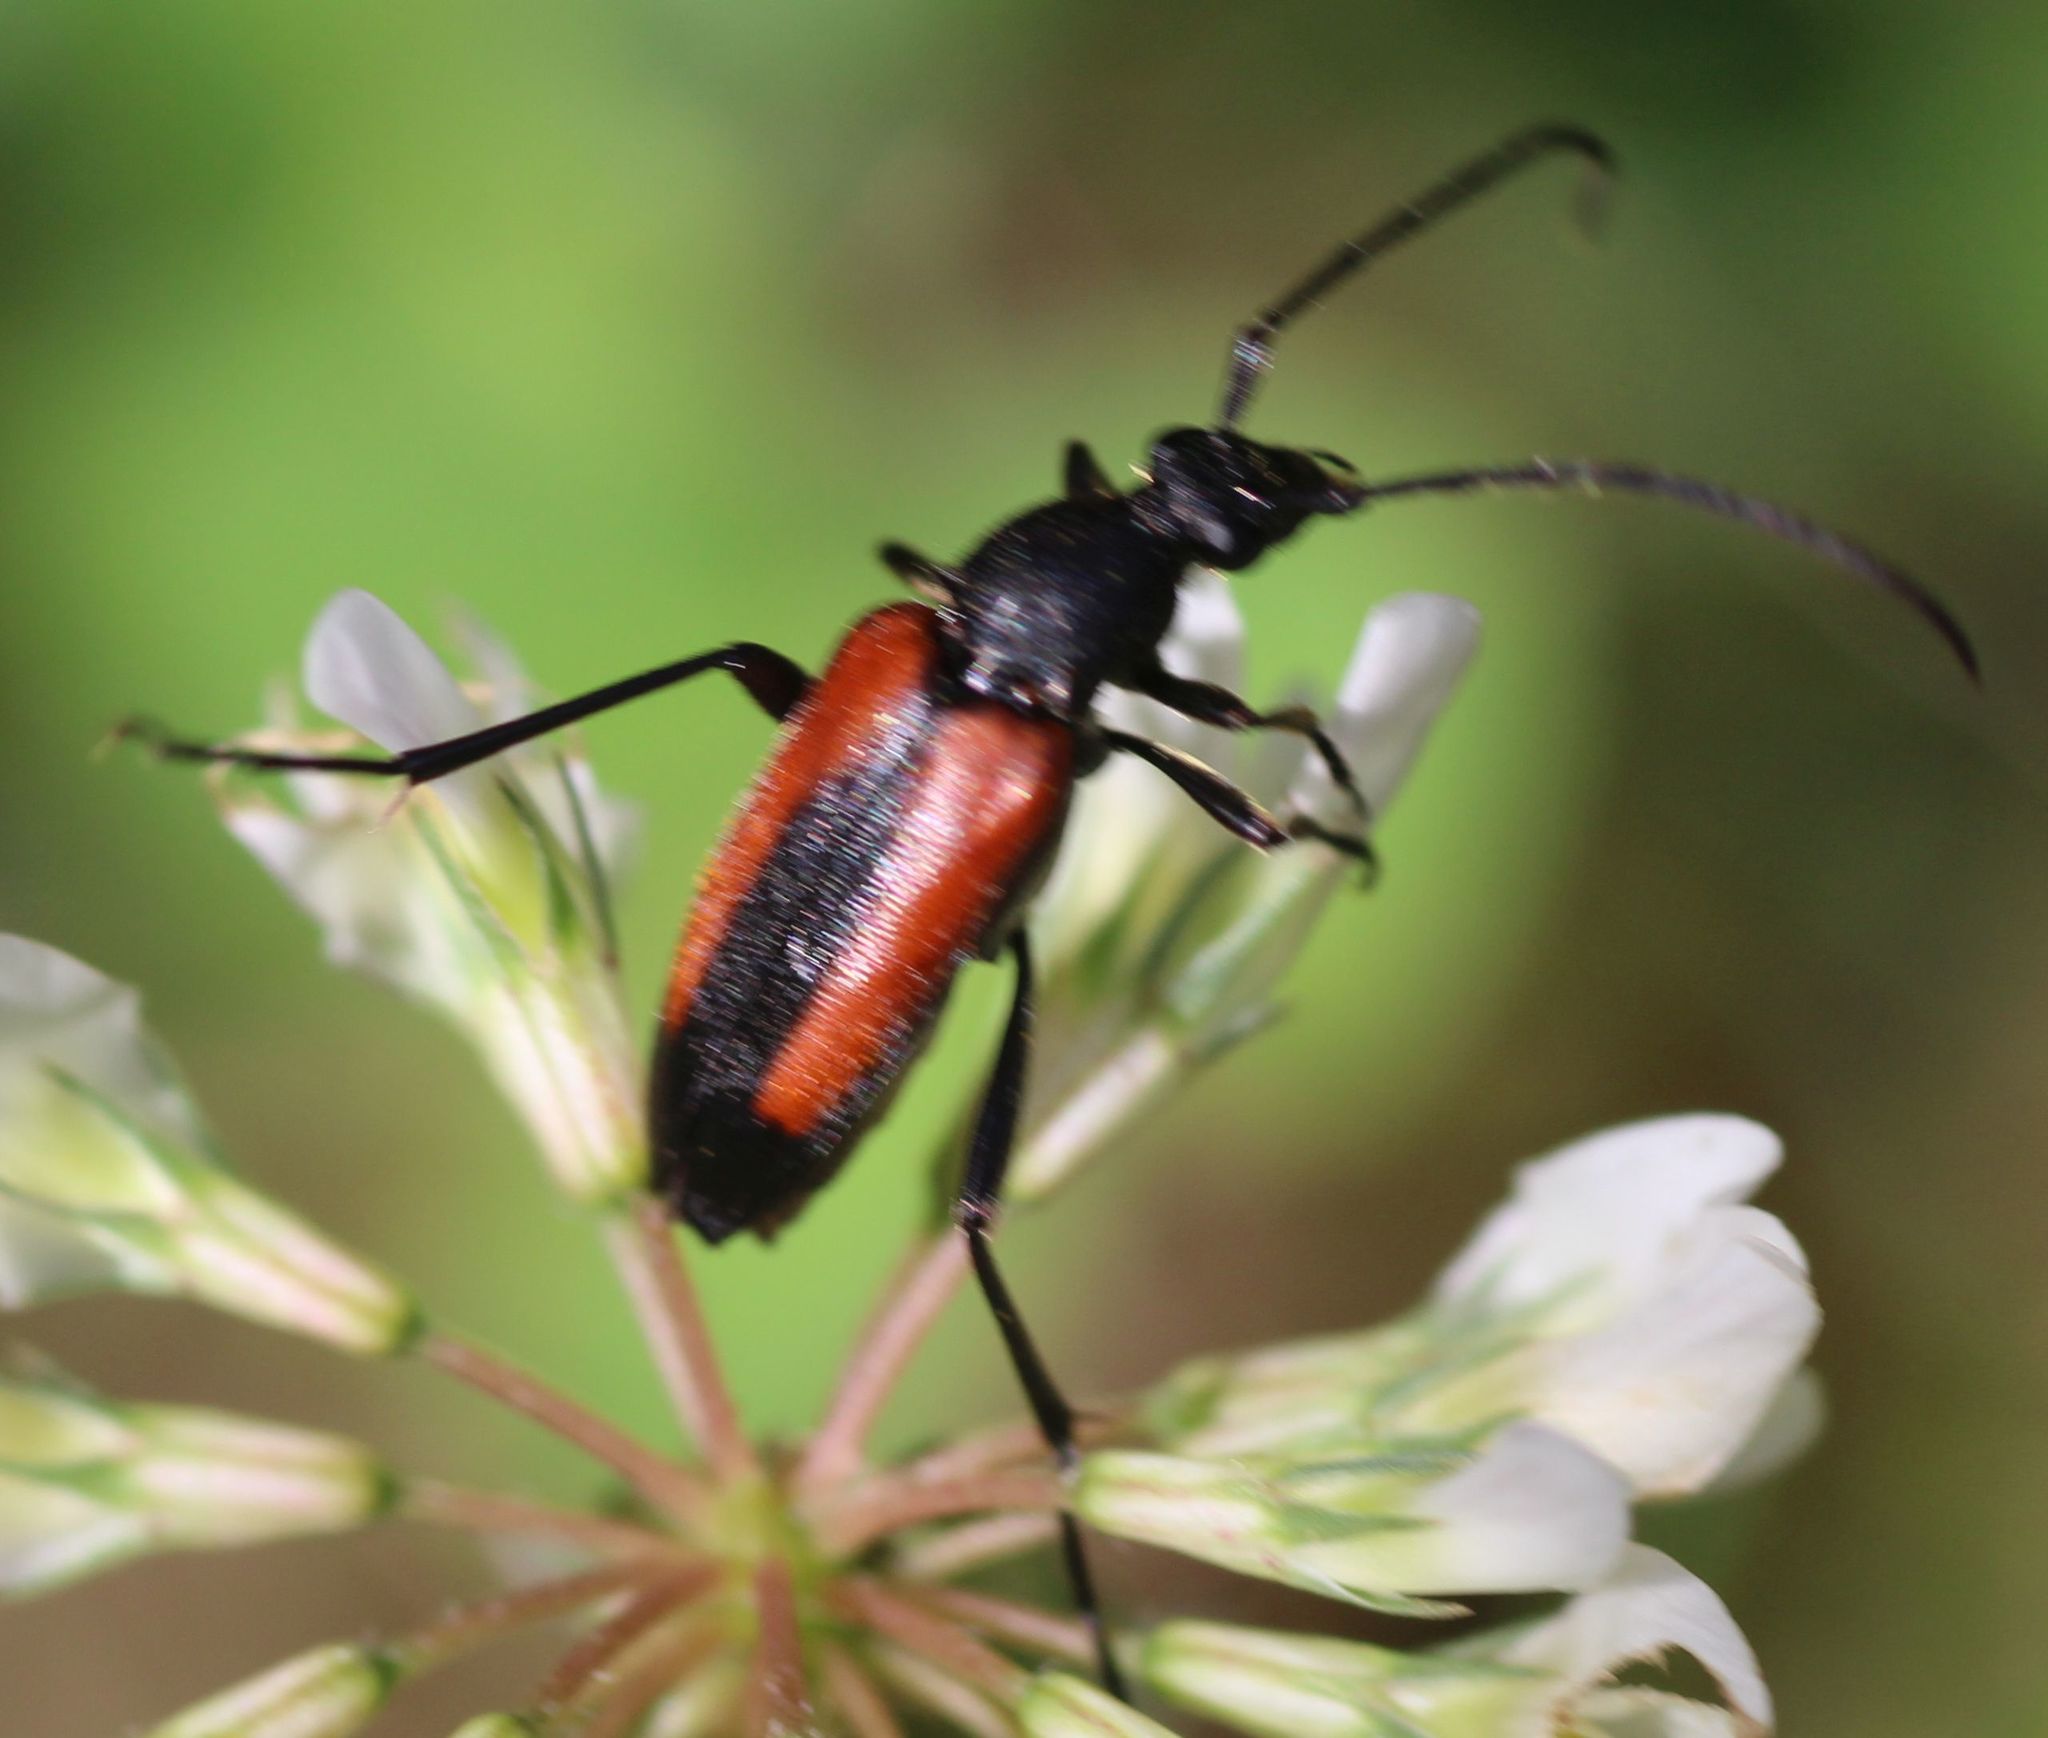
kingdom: Animalia
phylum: Arthropoda
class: Insecta
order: Coleoptera
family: Cerambycidae
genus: Stenurella
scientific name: Stenurella melanura
